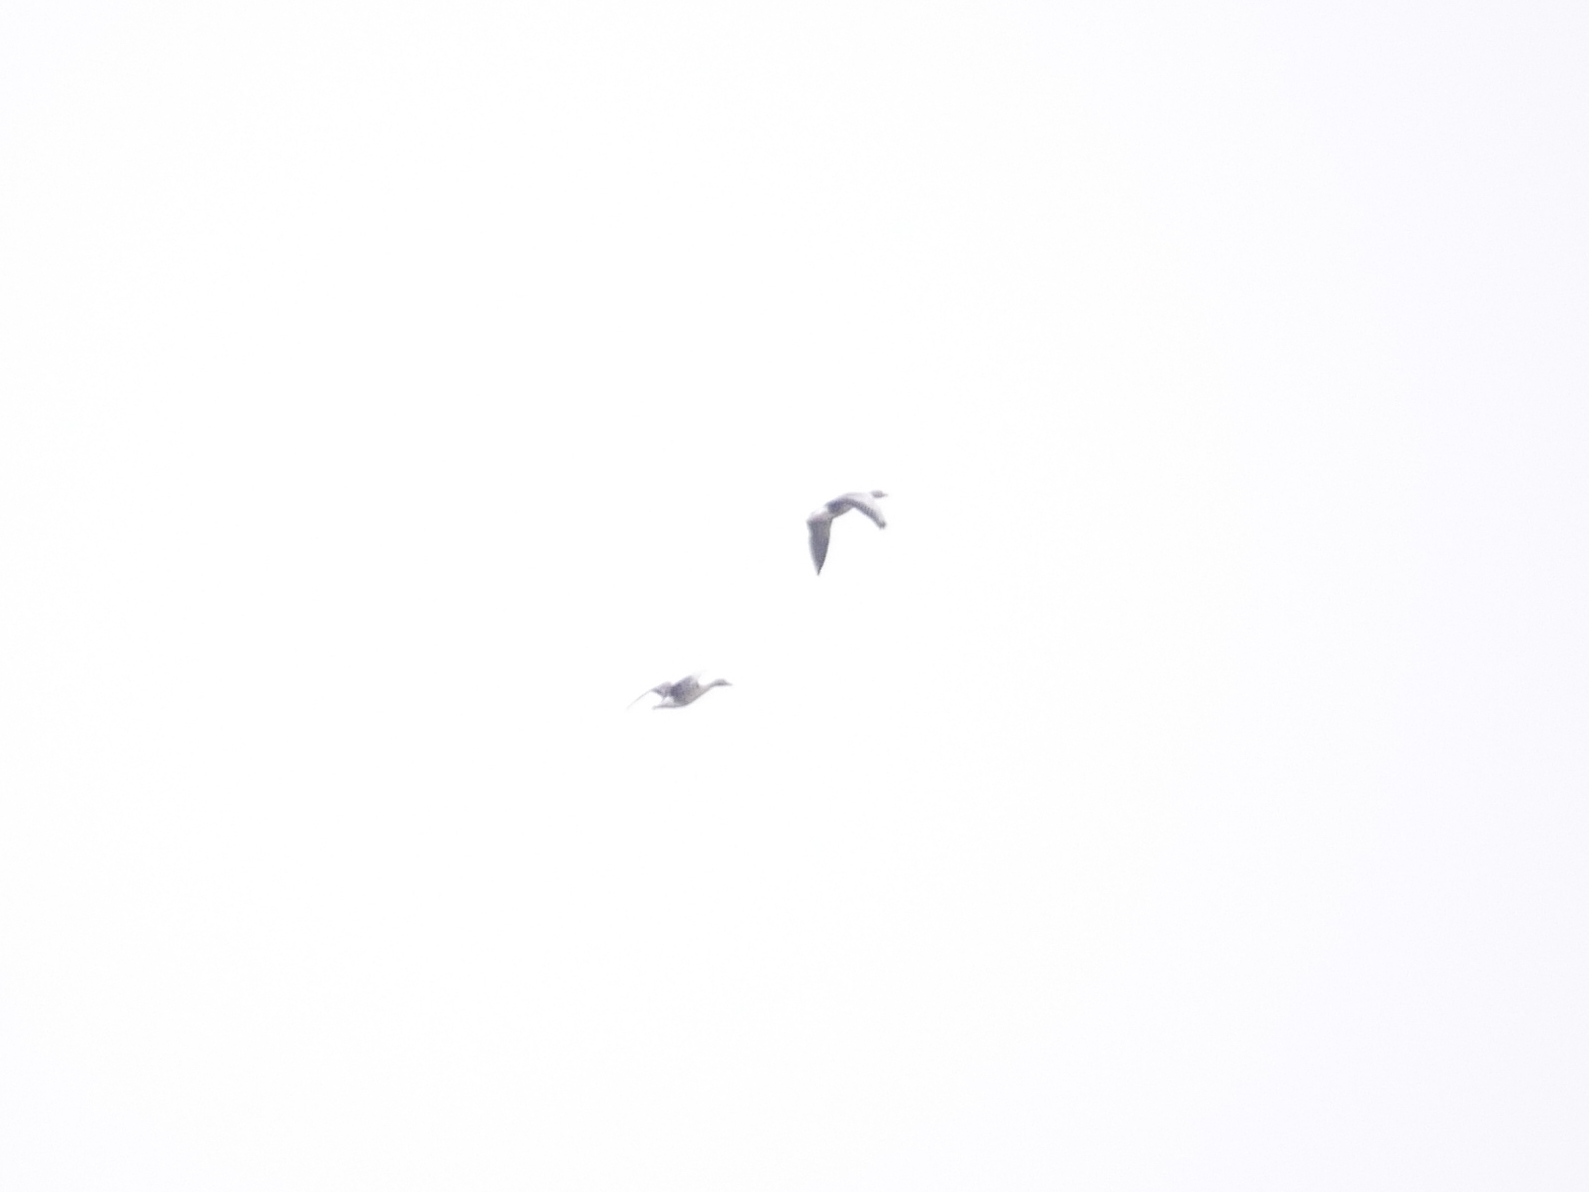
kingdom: Animalia
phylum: Chordata
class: Aves
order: Anseriformes
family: Anatidae
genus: Anser
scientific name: Anser anser
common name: Greylag goose
